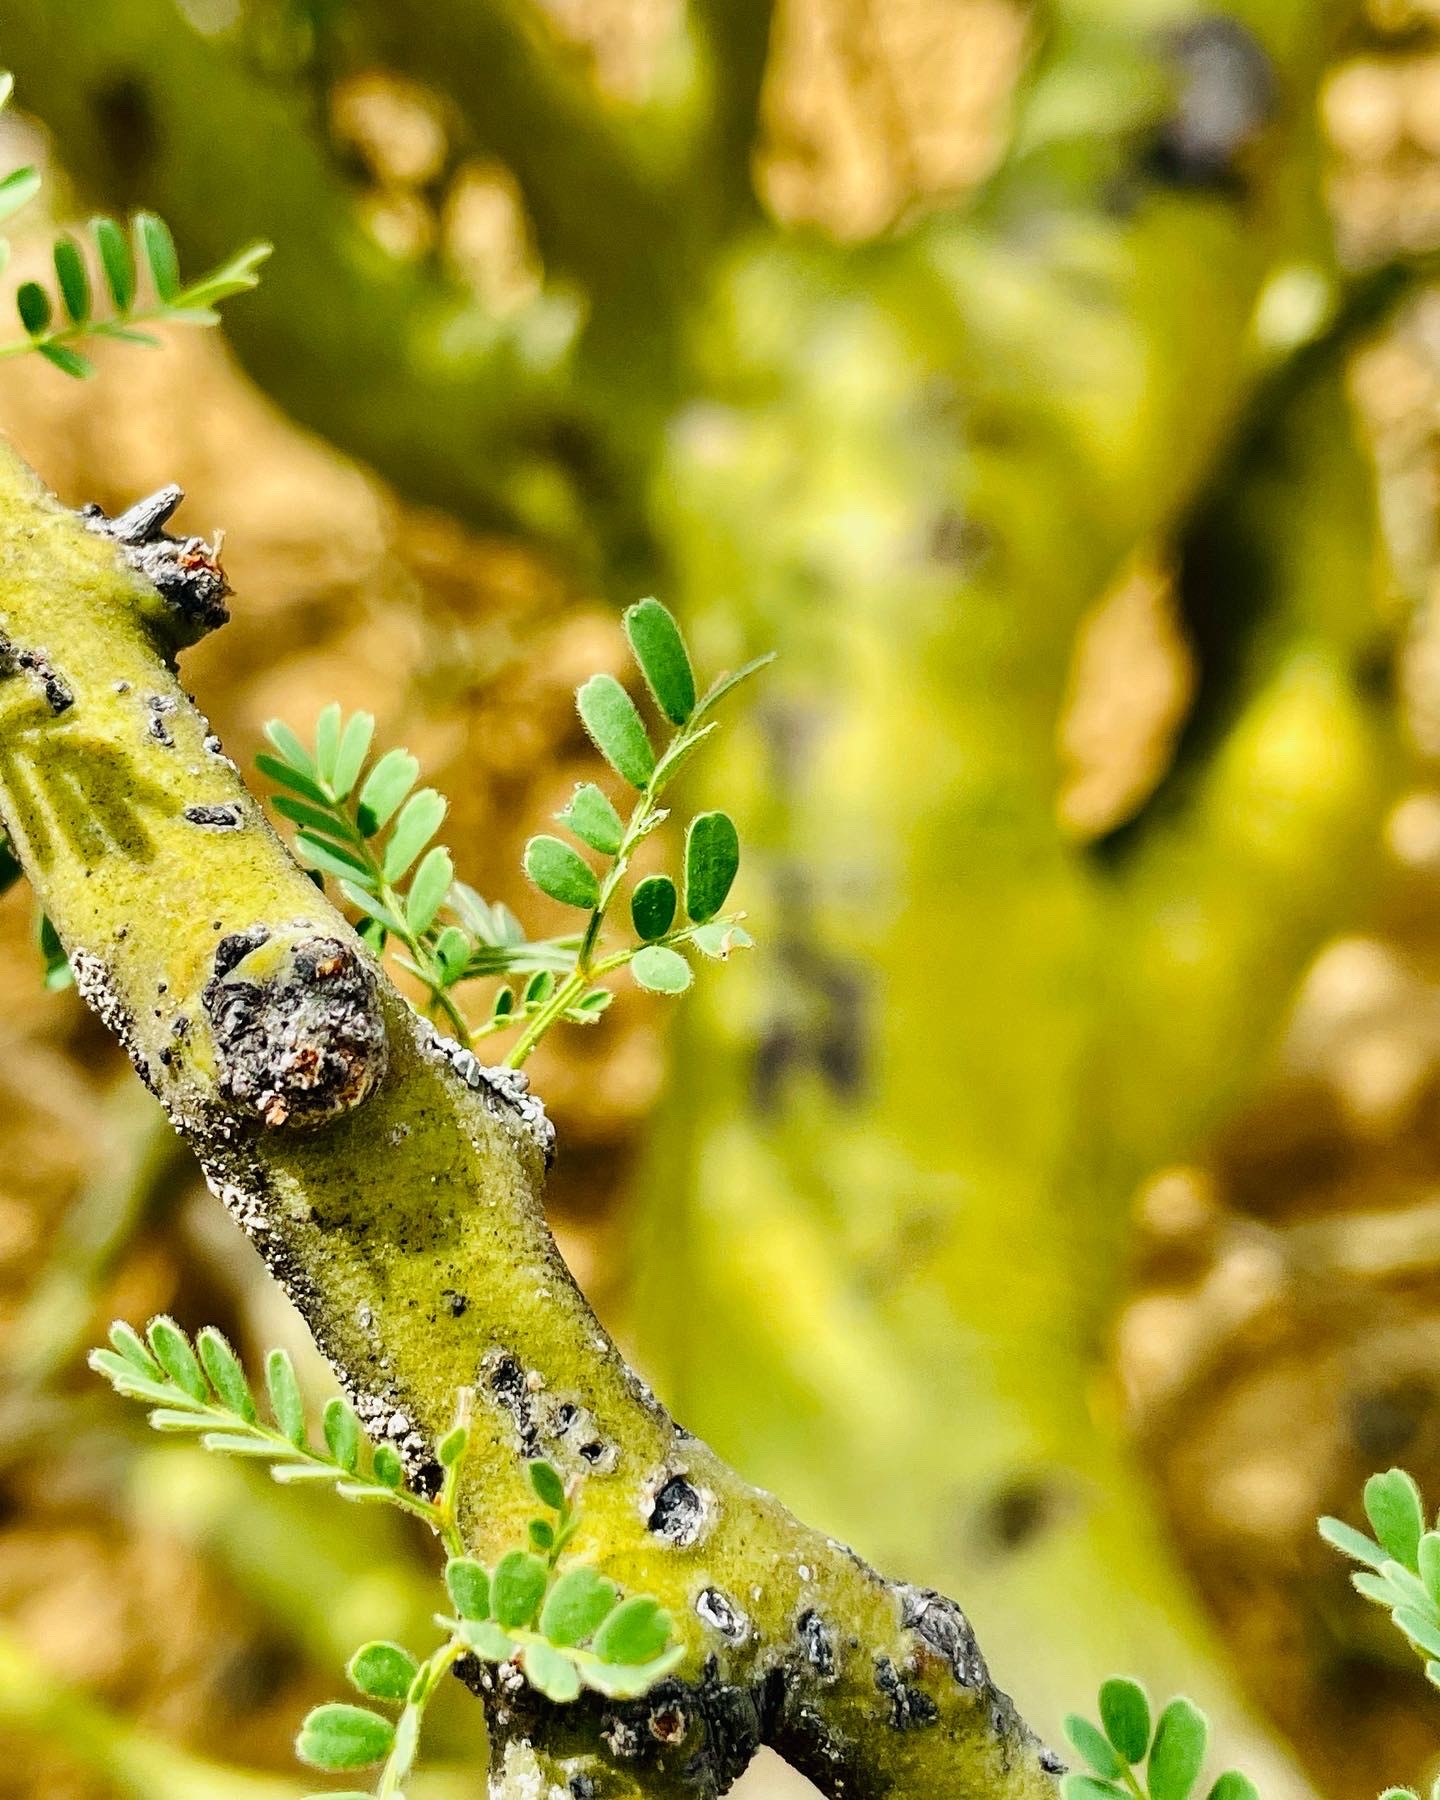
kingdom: Plantae
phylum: Tracheophyta
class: Magnoliopsida
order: Fabales
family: Fabaceae
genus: Parkinsonia
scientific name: Parkinsonia praecox
